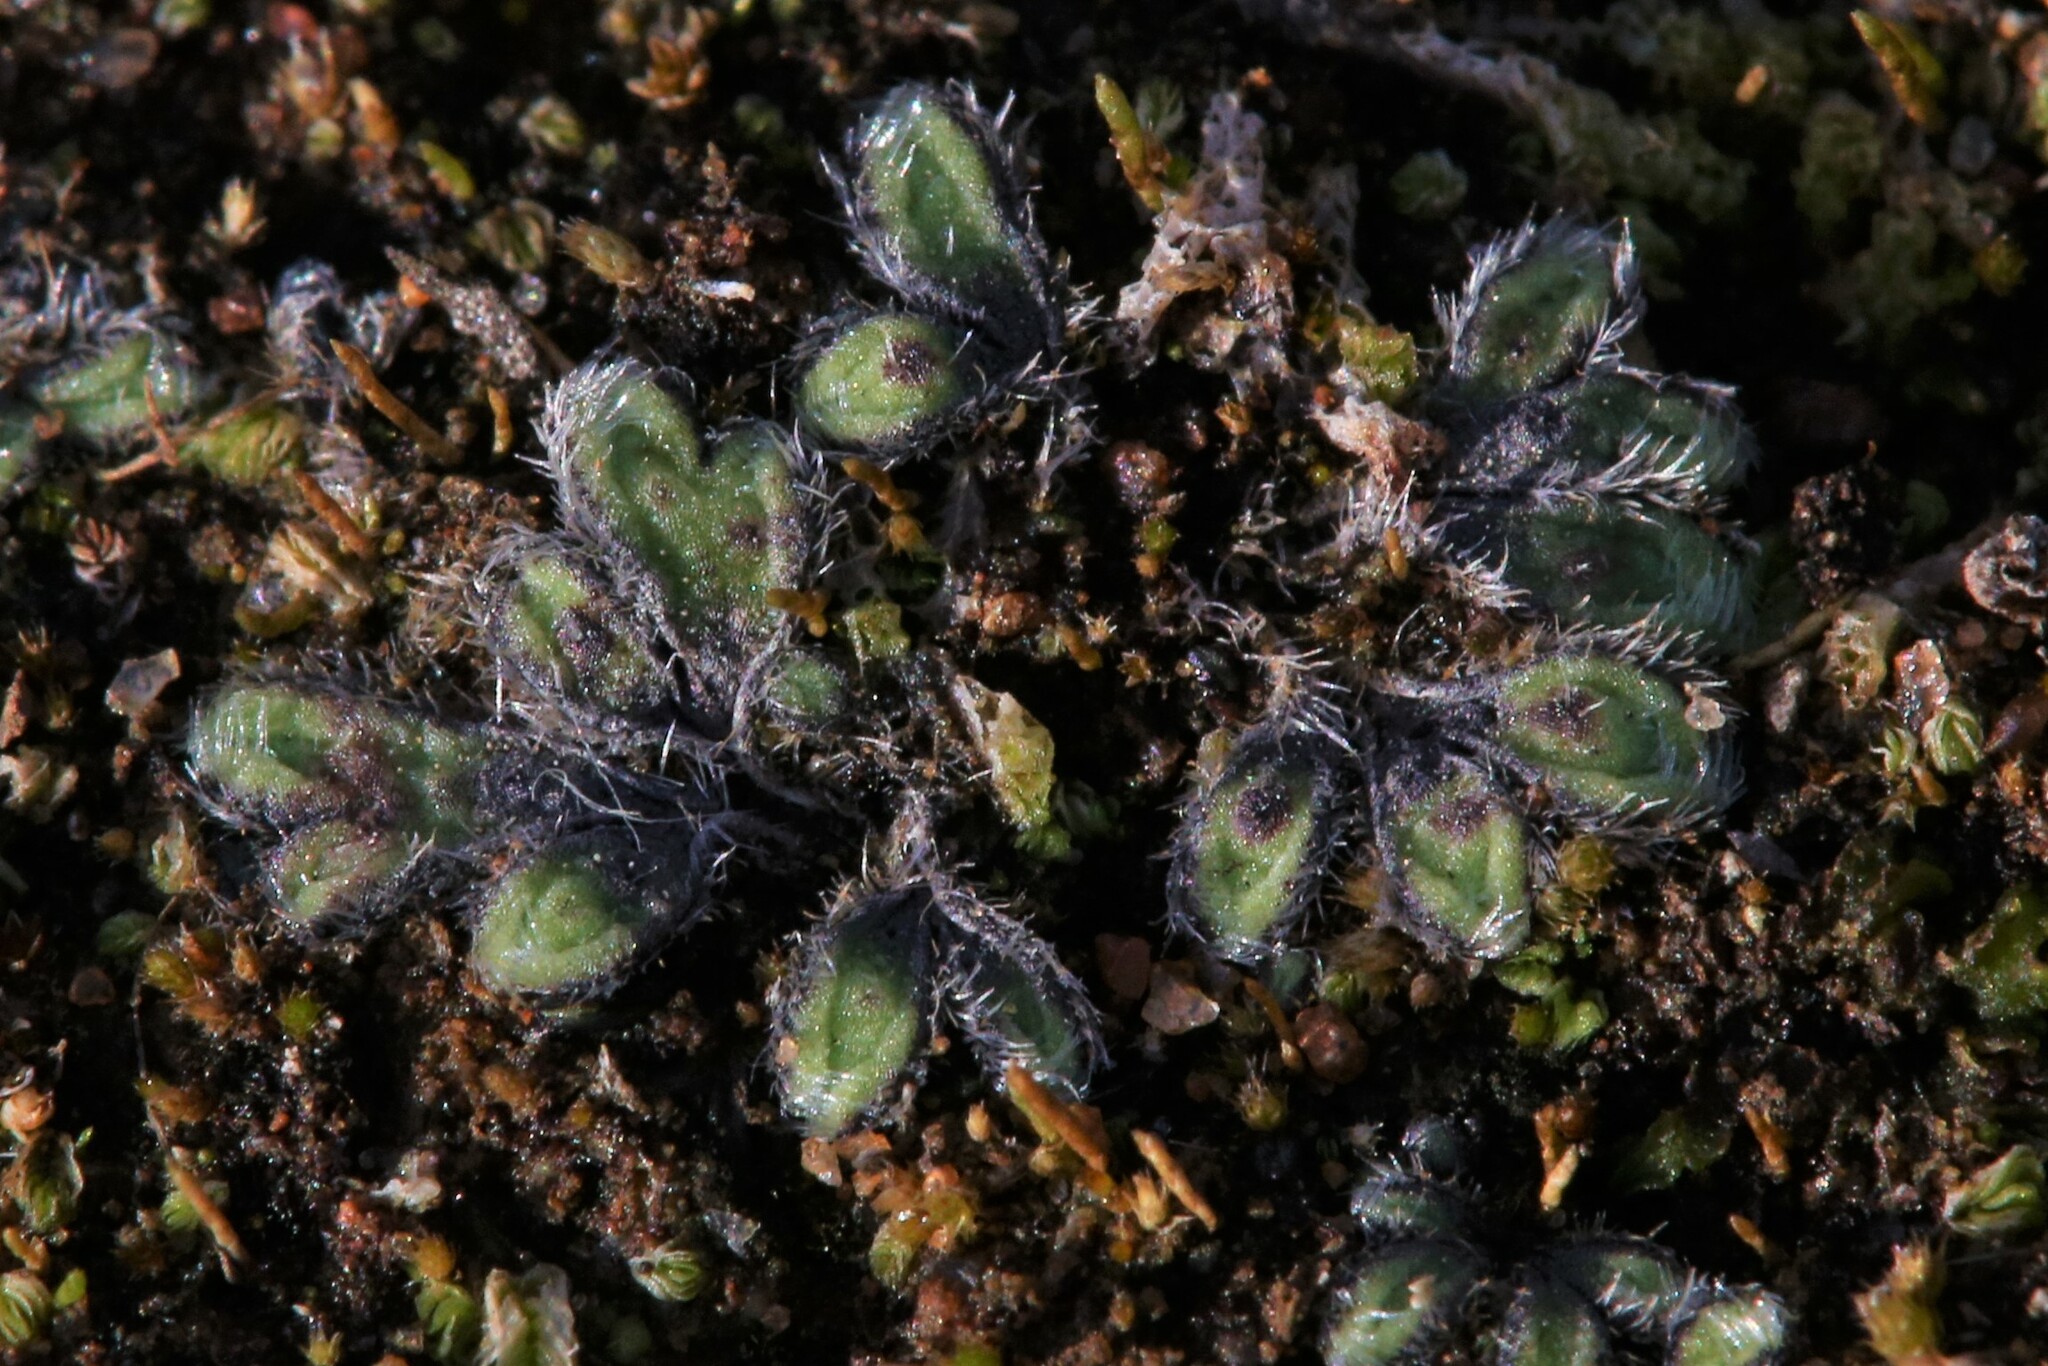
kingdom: Plantae
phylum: Marchantiophyta
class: Marchantiopsida
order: Marchantiales
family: Ricciaceae
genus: Riccia
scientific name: Riccia crinita
